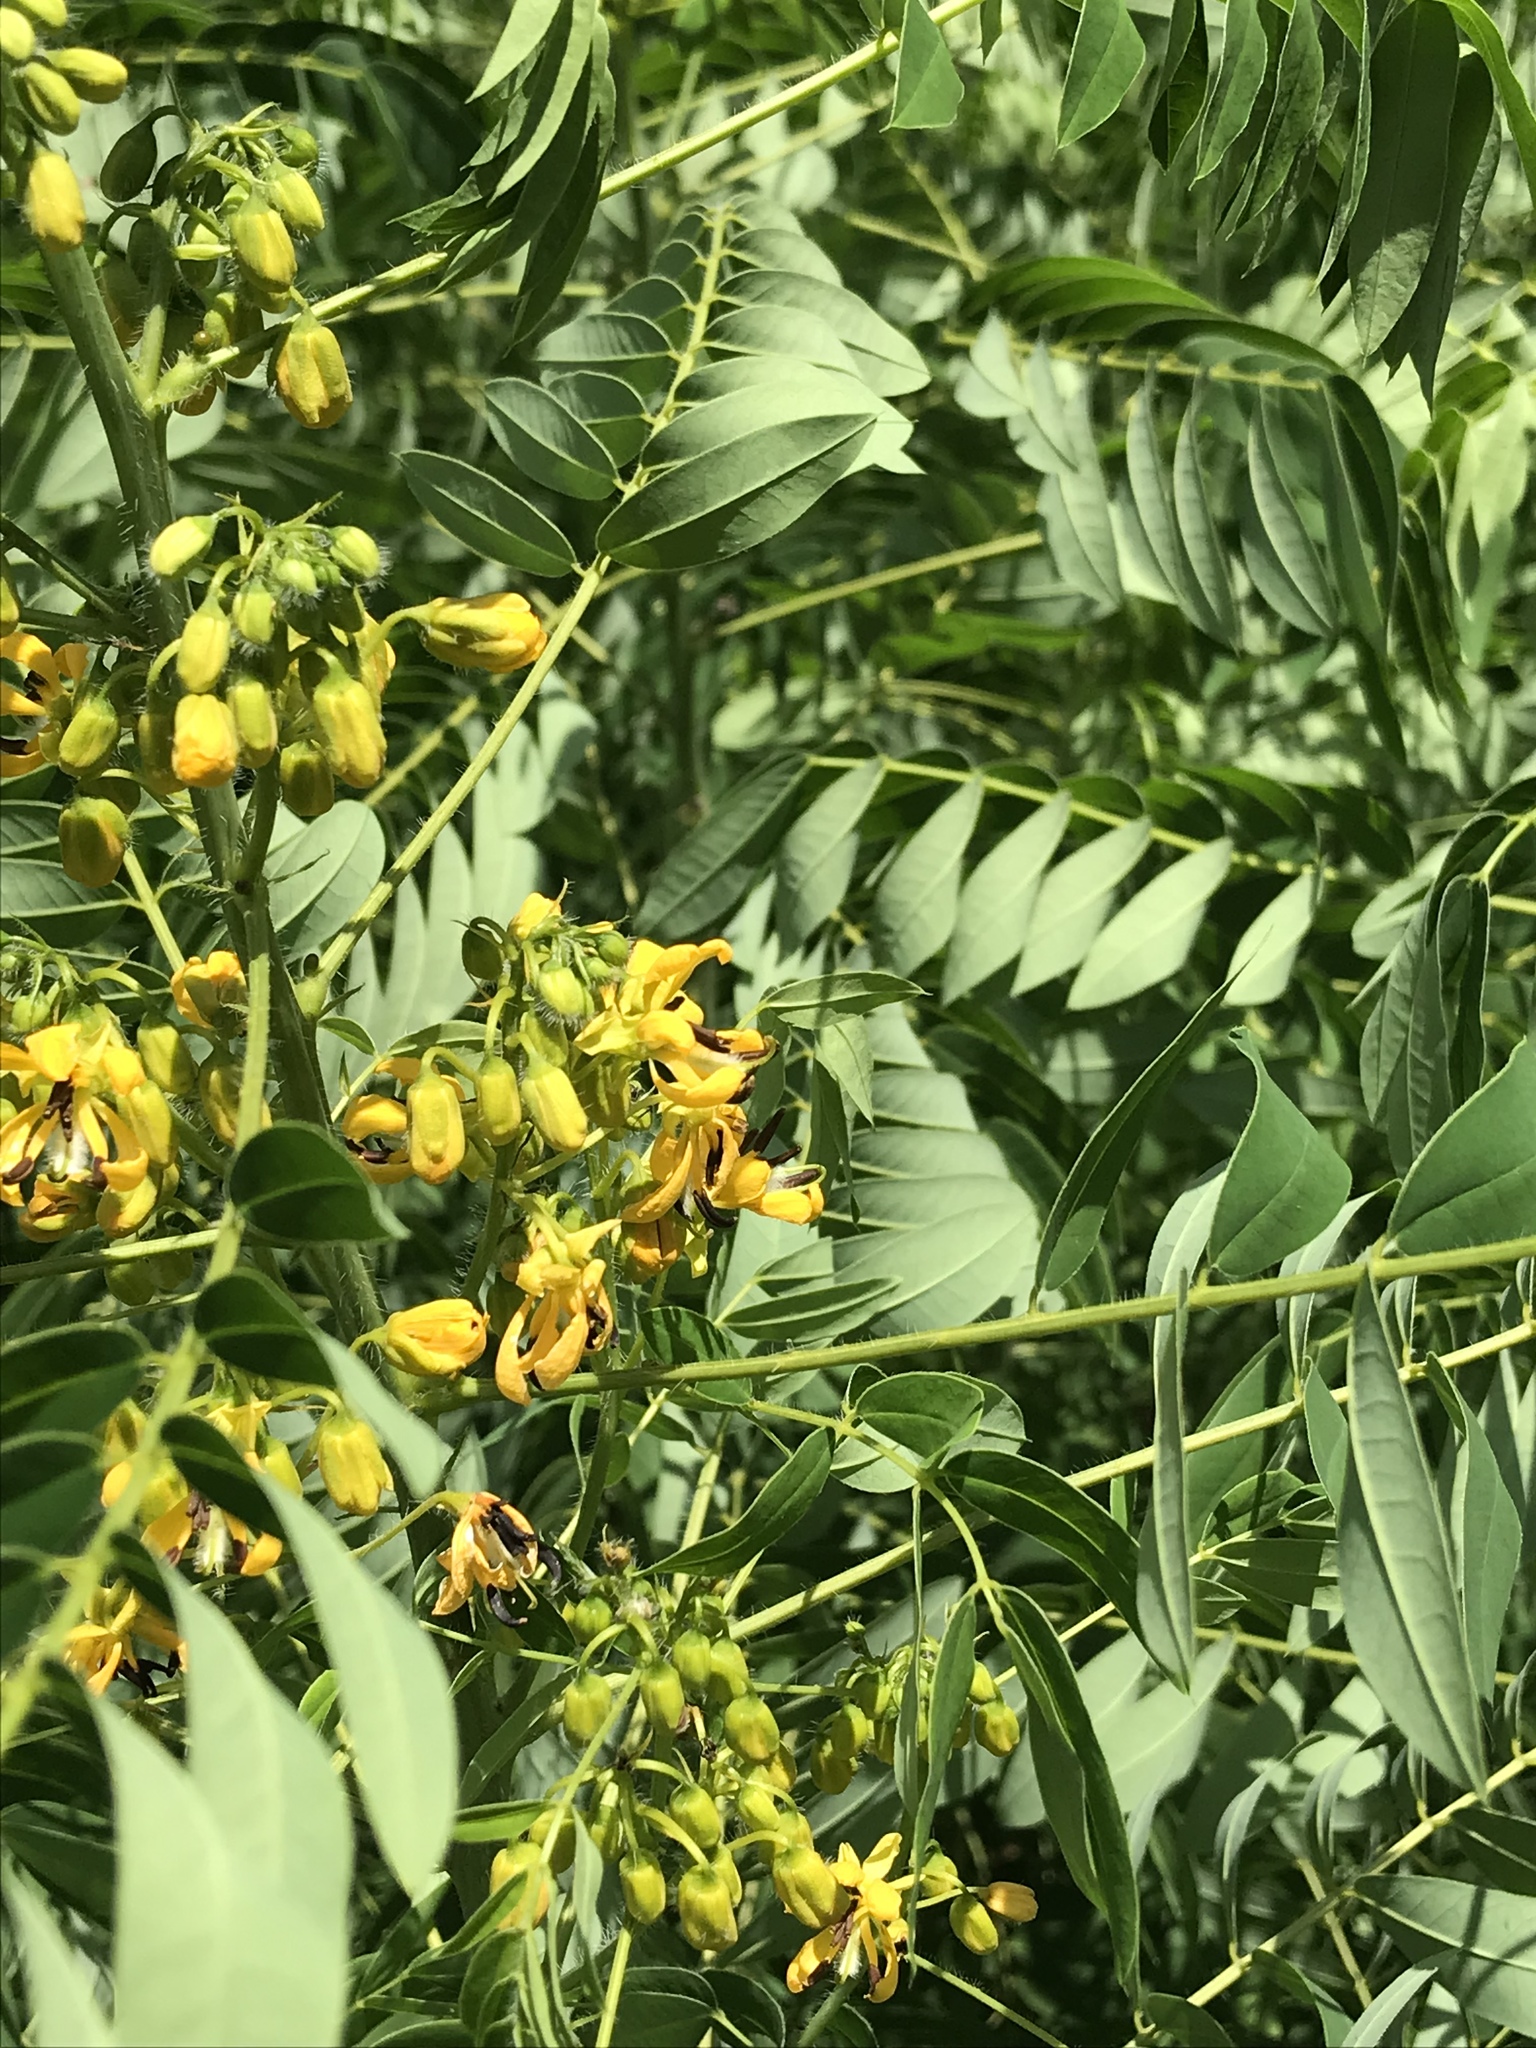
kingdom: Plantae
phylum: Tracheophyta
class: Magnoliopsida
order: Fabales
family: Fabaceae
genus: Senna
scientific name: Senna hebecarpa
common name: Wild senna
